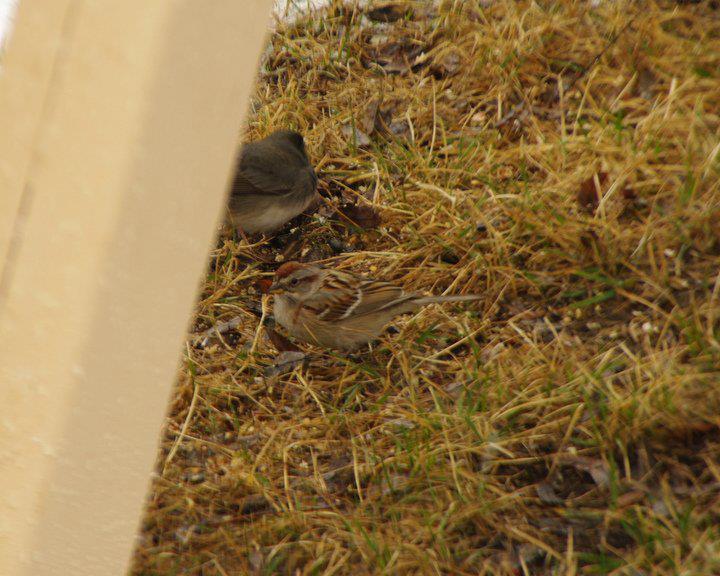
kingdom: Animalia
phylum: Chordata
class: Aves
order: Passeriformes
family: Passerellidae
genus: Spizelloides
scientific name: Spizelloides arborea
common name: American tree sparrow
